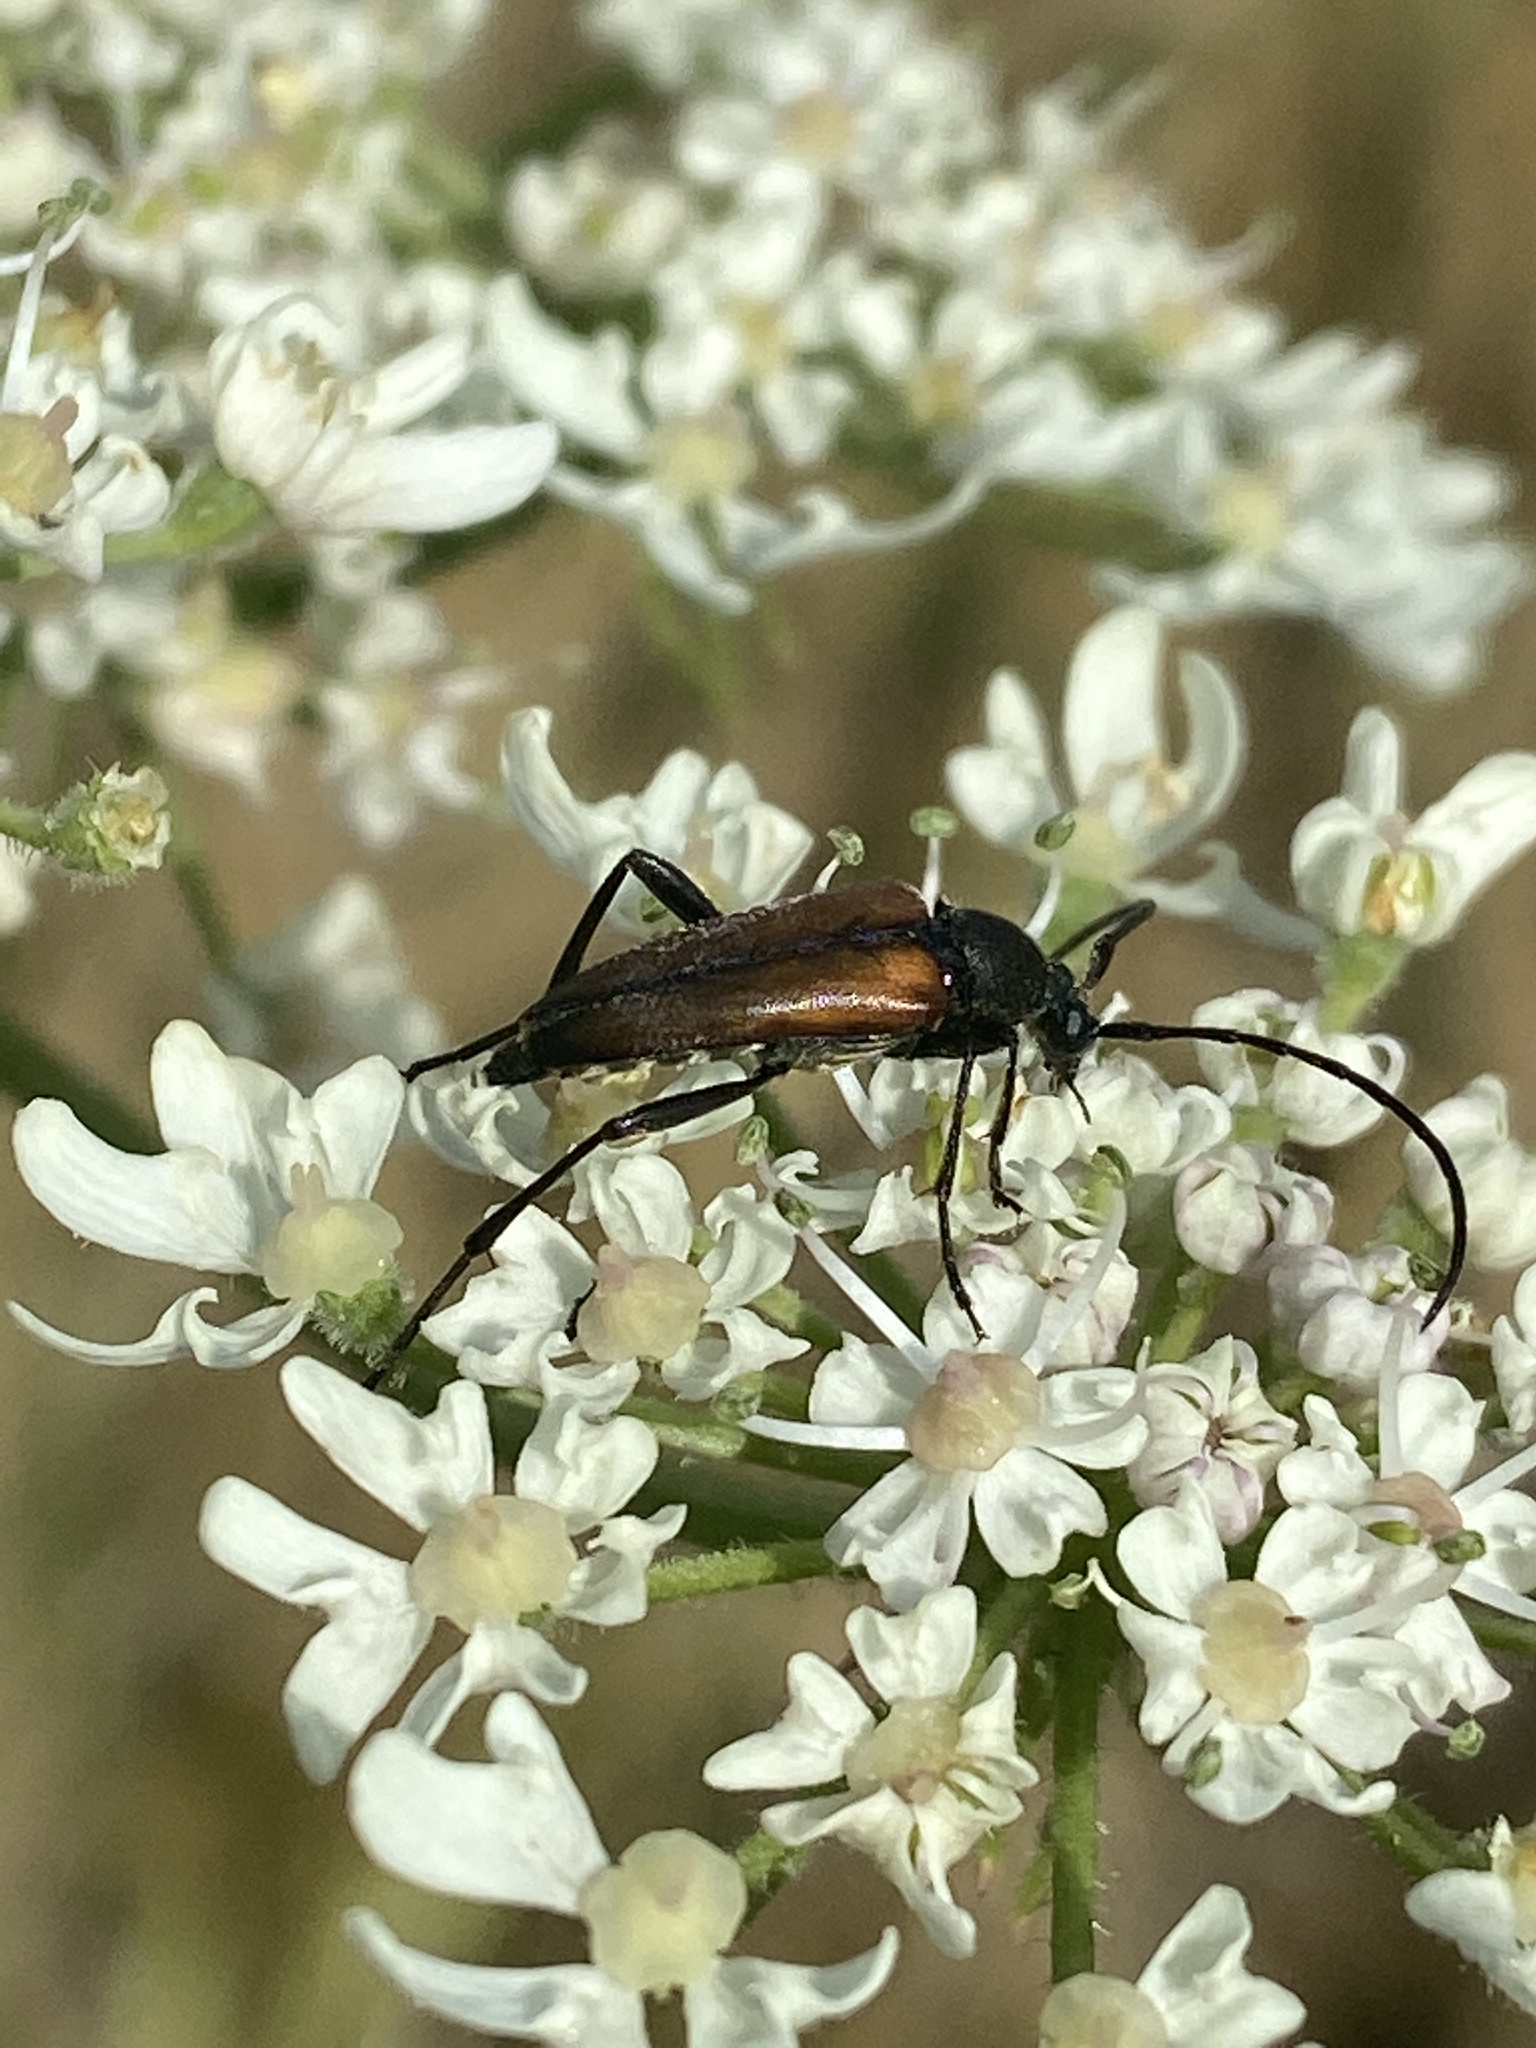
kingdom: Animalia
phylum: Arthropoda
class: Insecta
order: Coleoptera
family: Cerambycidae
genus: Stenurella
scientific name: Stenurella melanura
